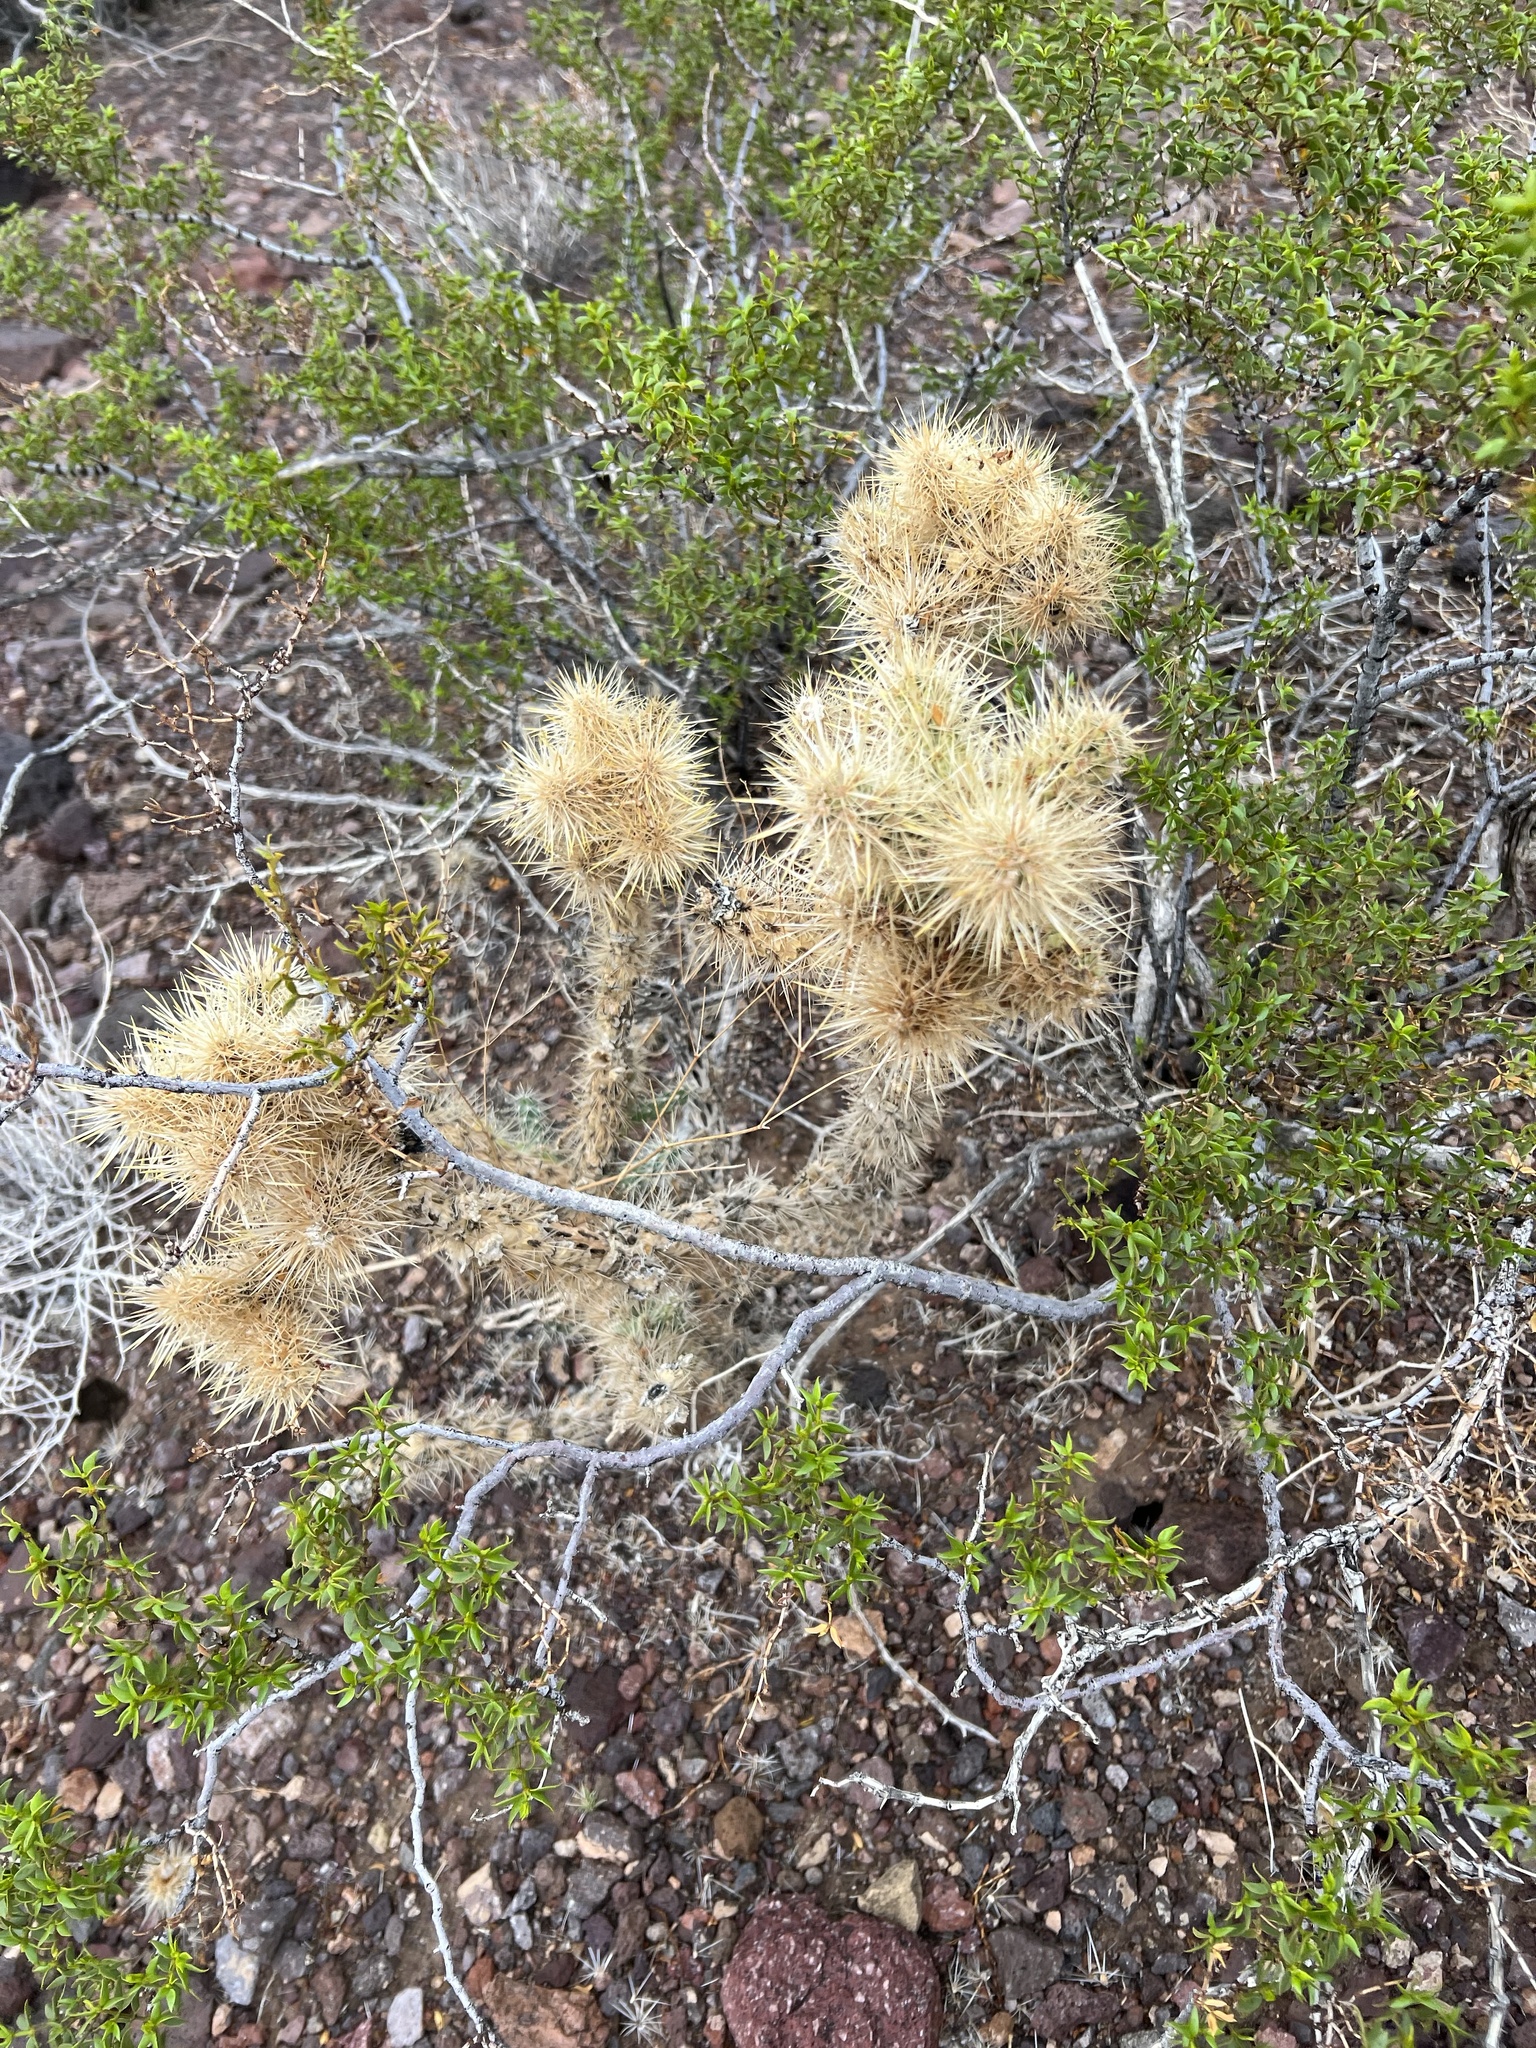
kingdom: Plantae
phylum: Tracheophyta
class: Magnoliopsida
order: Caryophyllales
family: Cactaceae
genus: Cylindropuntia
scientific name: Cylindropuntia echinocarpa
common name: Ground cholla
